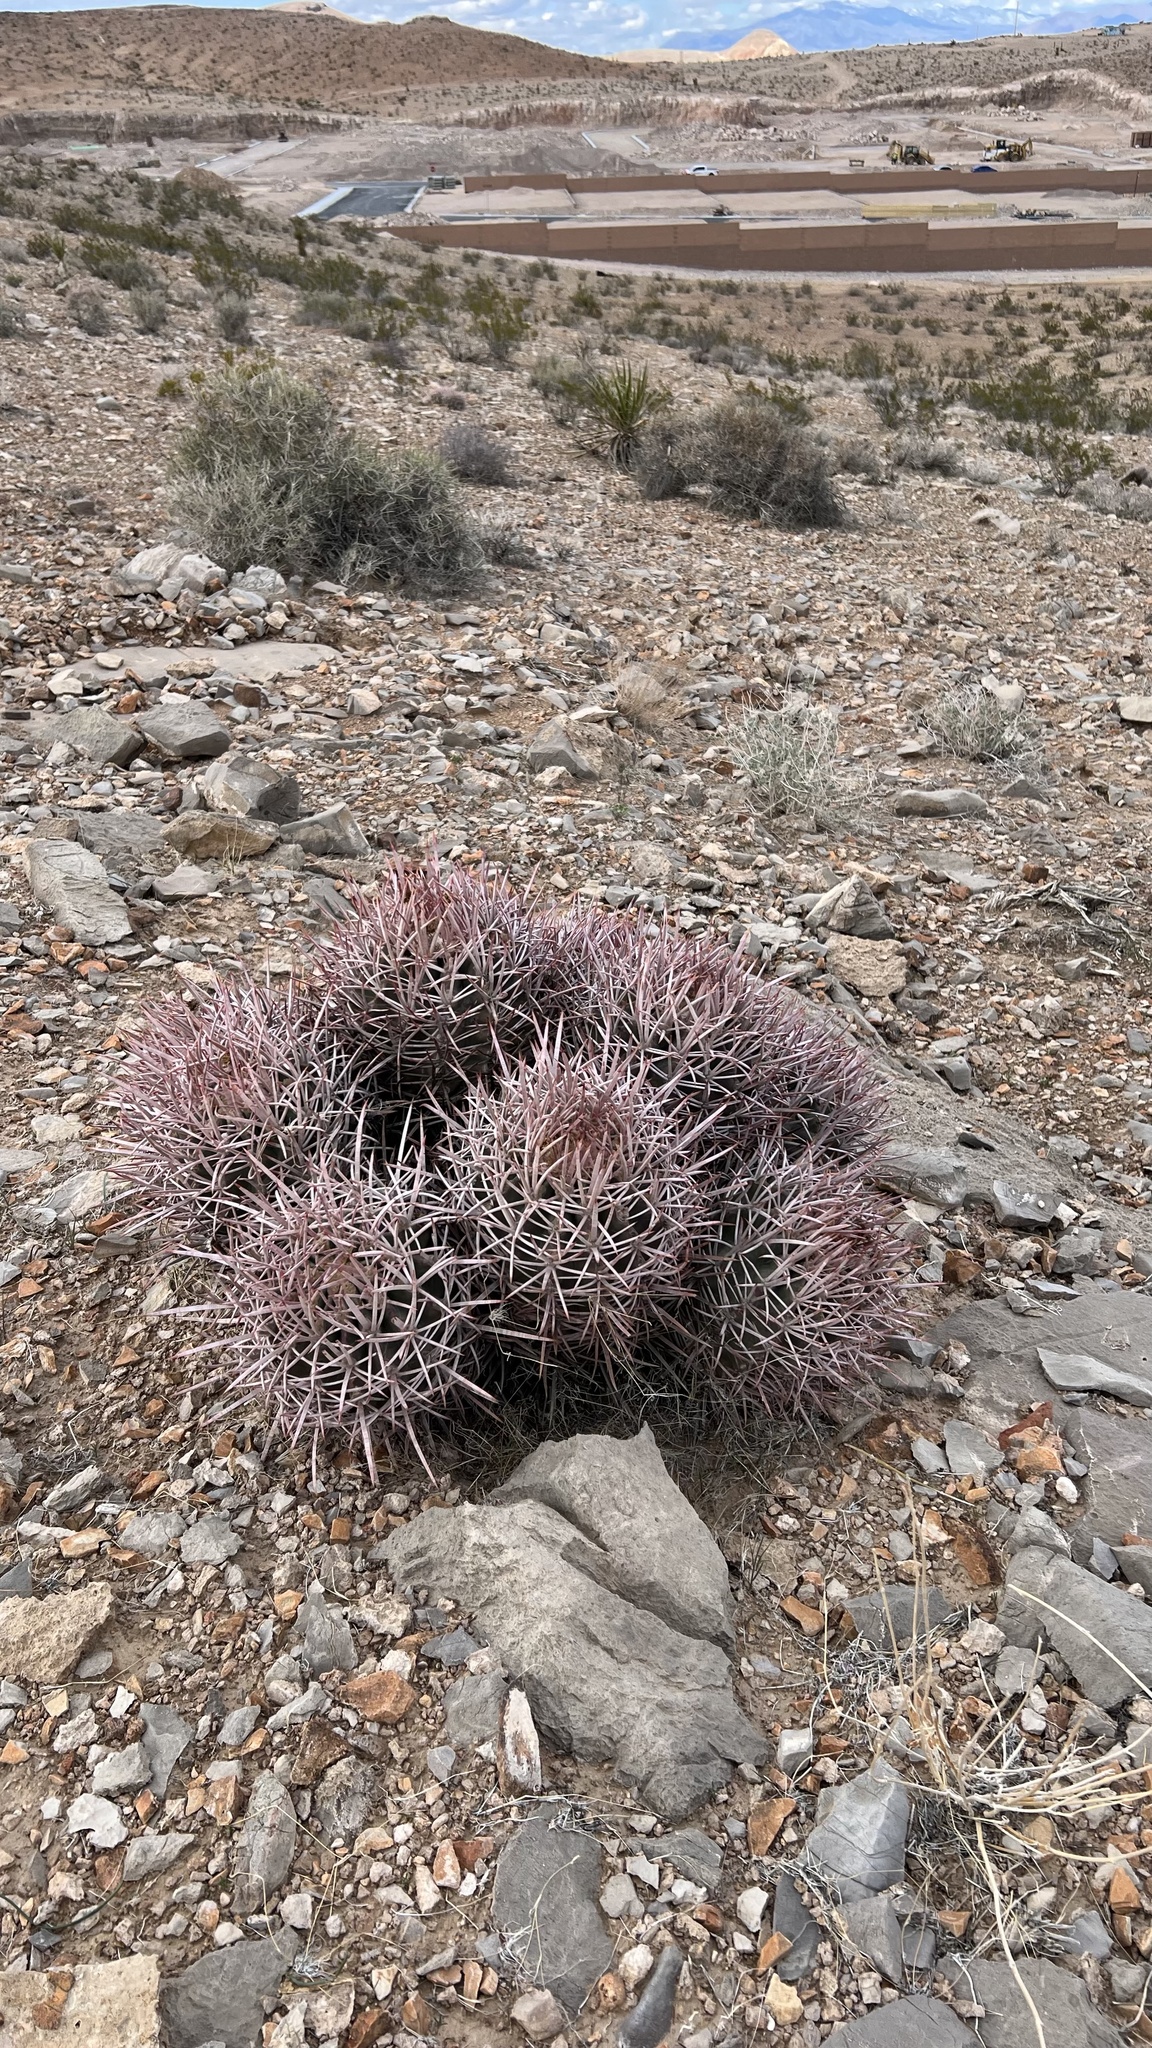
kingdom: Plantae
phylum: Tracheophyta
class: Magnoliopsida
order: Caryophyllales
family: Cactaceae
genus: Echinocactus
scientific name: Echinocactus polycephalus
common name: Cottontop cactus
